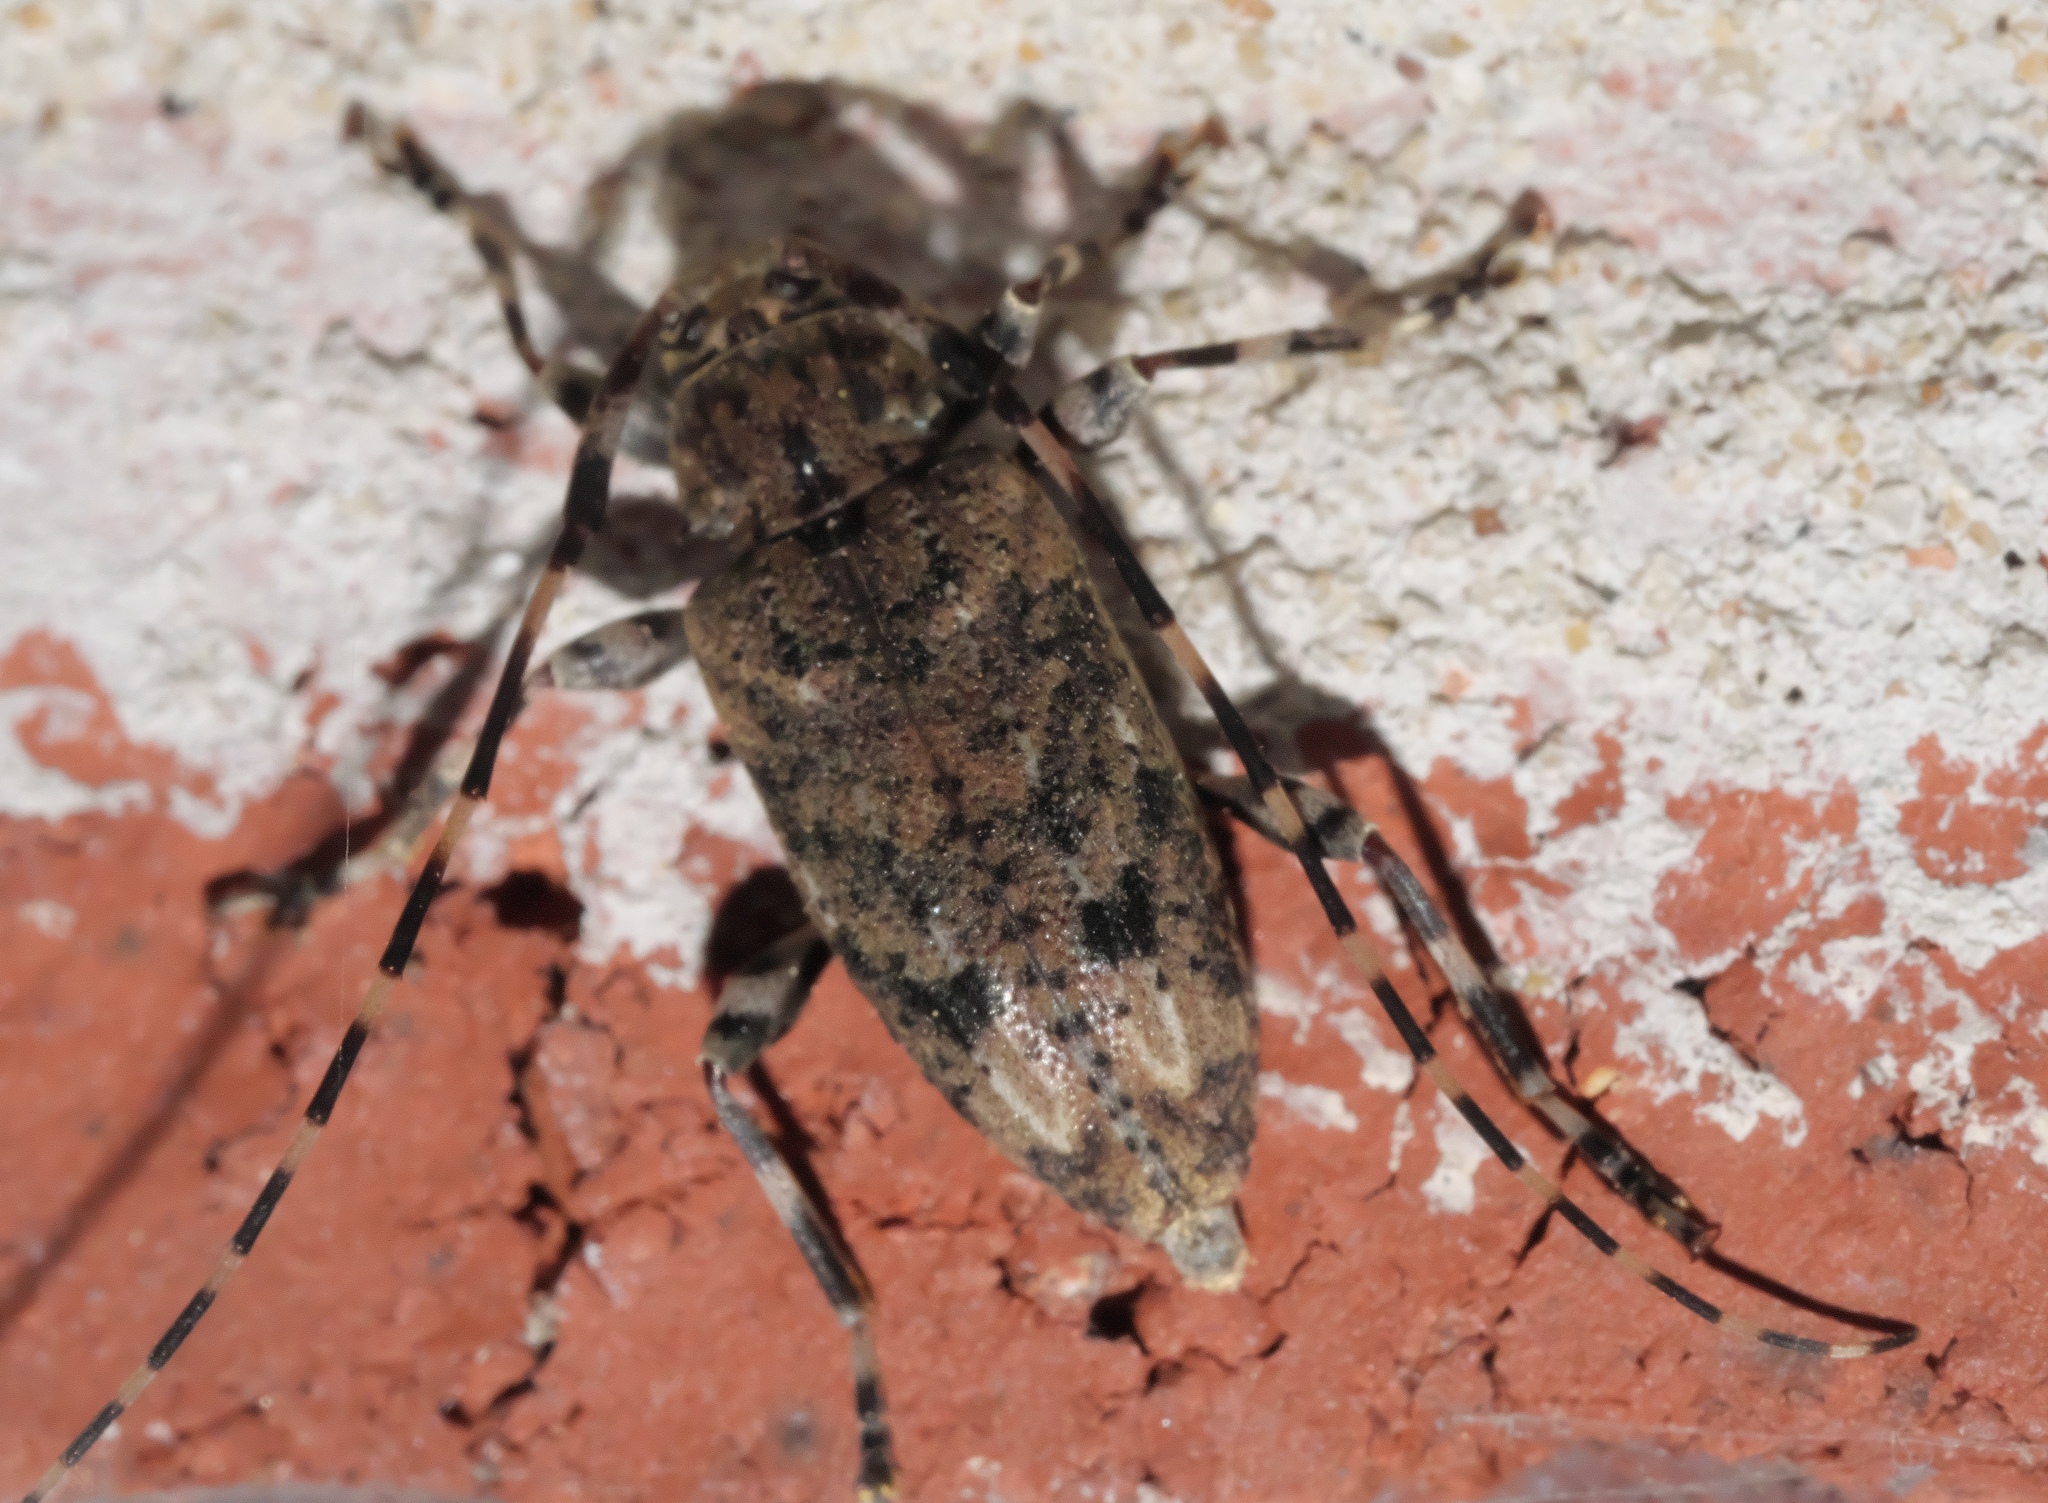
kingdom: Animalia
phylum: Arthropoda
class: Insecta
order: Coleoptera
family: Cerambycidae
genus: Astyleiopus
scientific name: Astyleiopus variegatus
